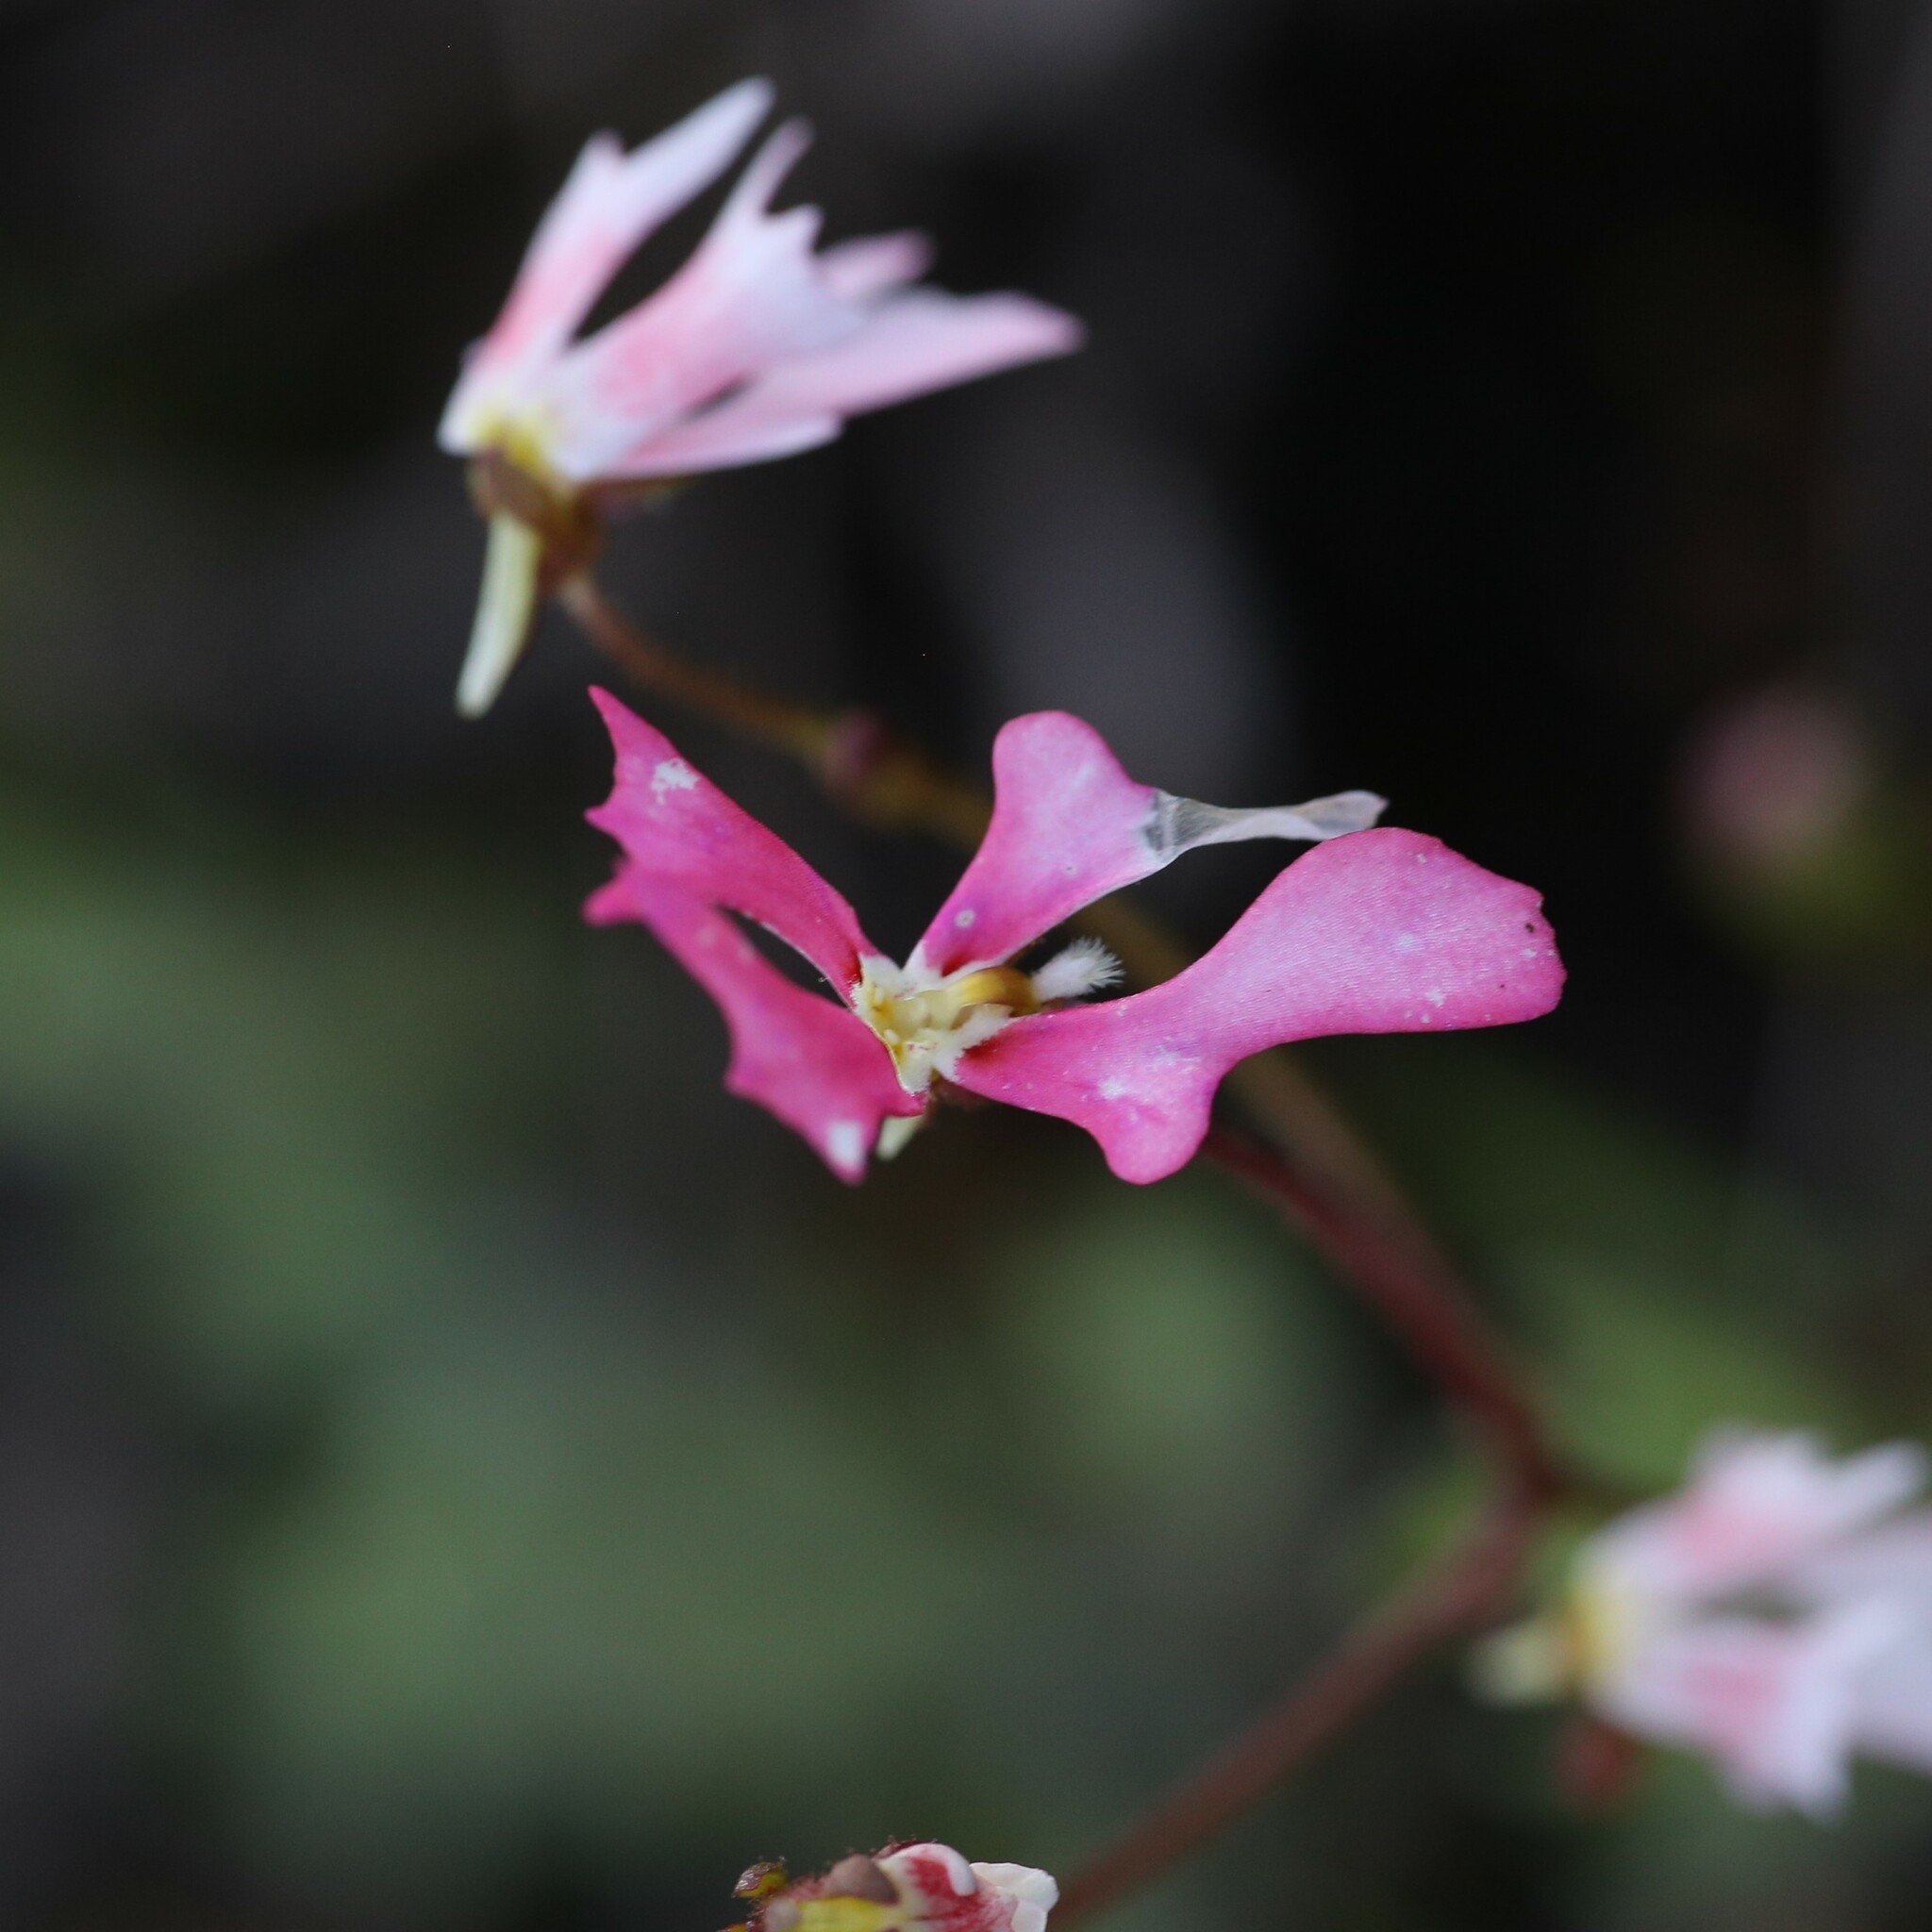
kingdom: Plantae
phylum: Tracheophyta
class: Magnoliopsida
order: Asterales
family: Stylidiaceae
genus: Stylidium
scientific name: Stylidium androsaceum
